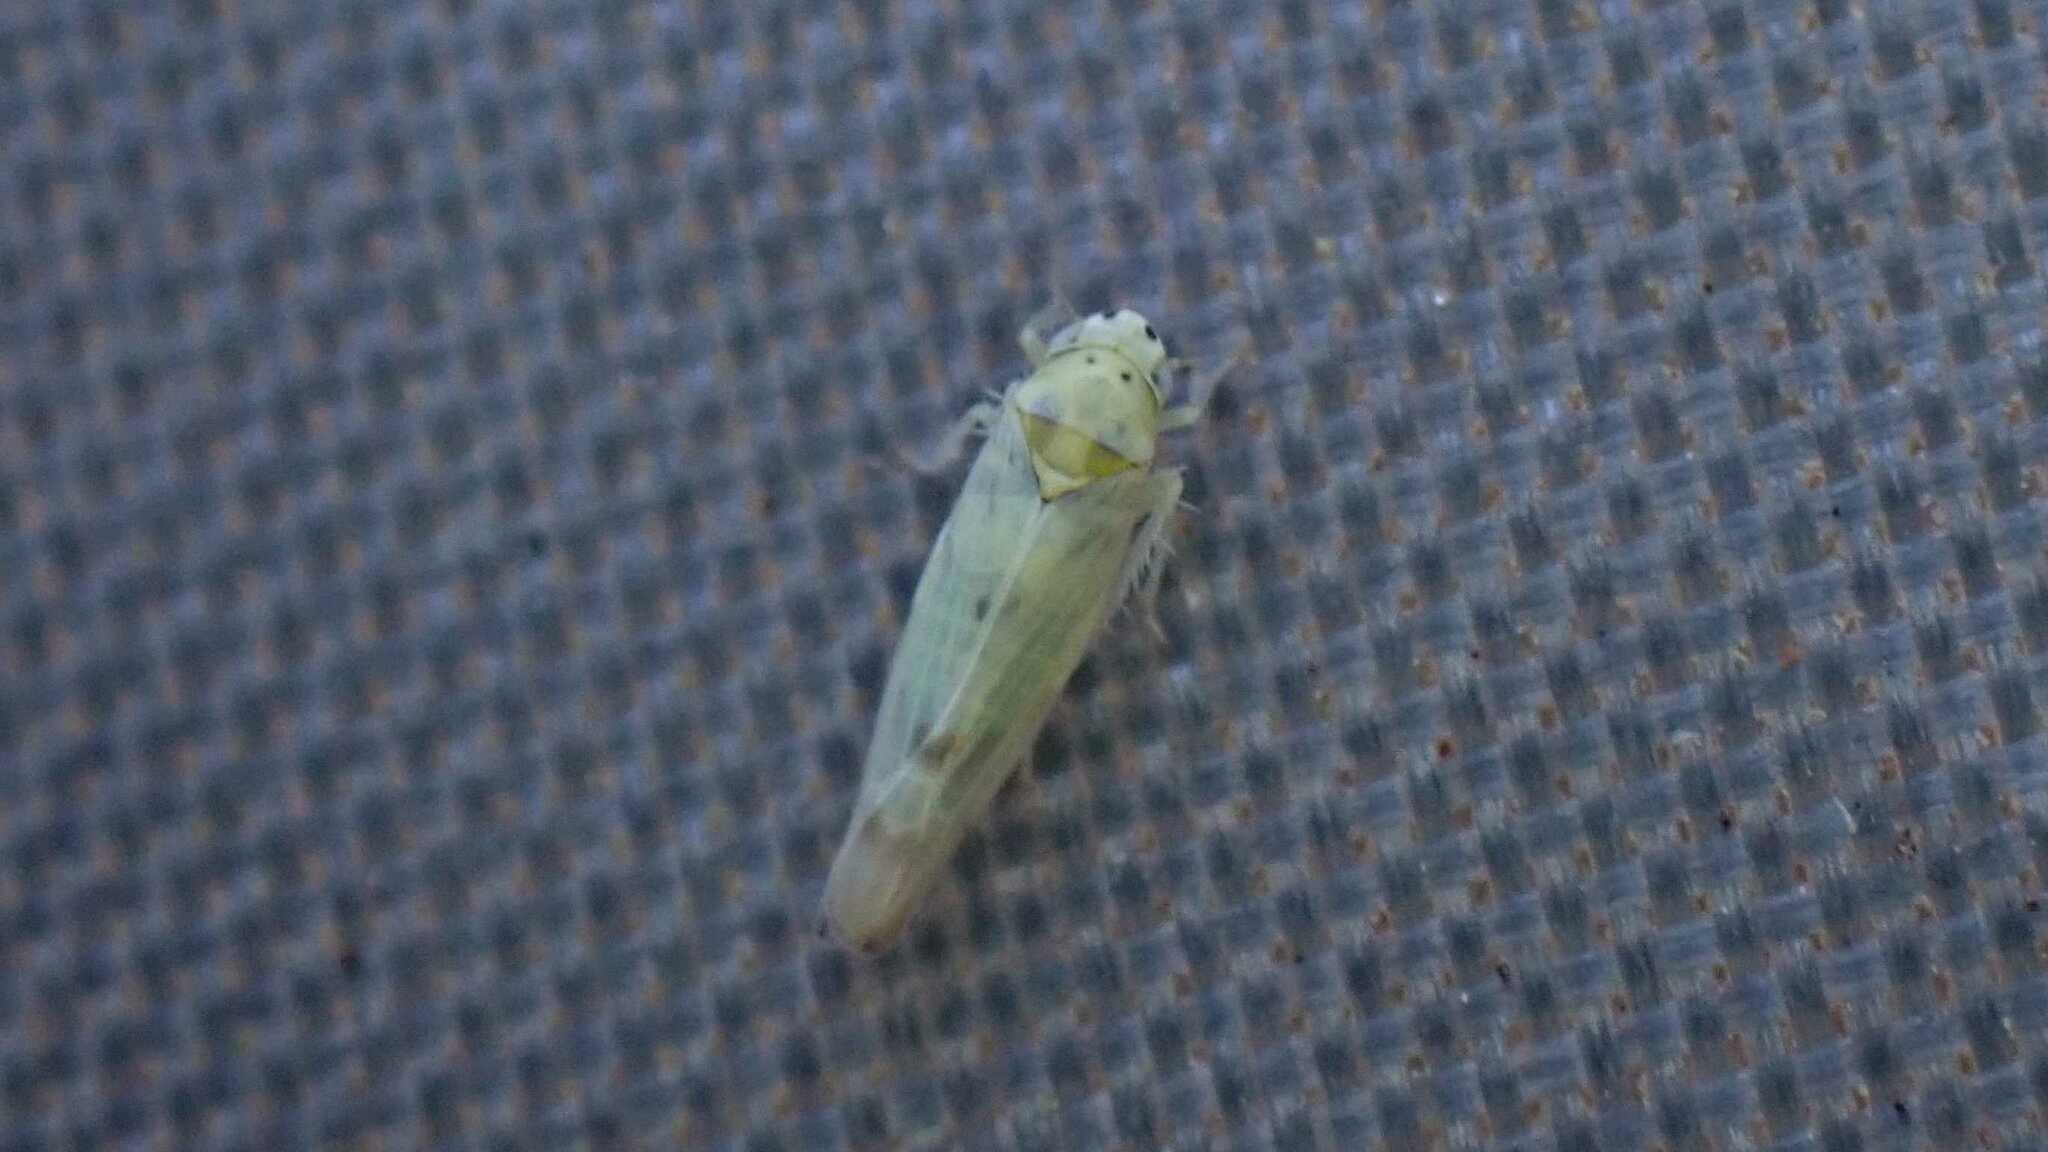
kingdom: Animalia
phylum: Arthropoda
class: Insecta
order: Hemiptera
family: Cicadellidae
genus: Linnavuoriana
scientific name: Linnavuoriana sexmaculata
